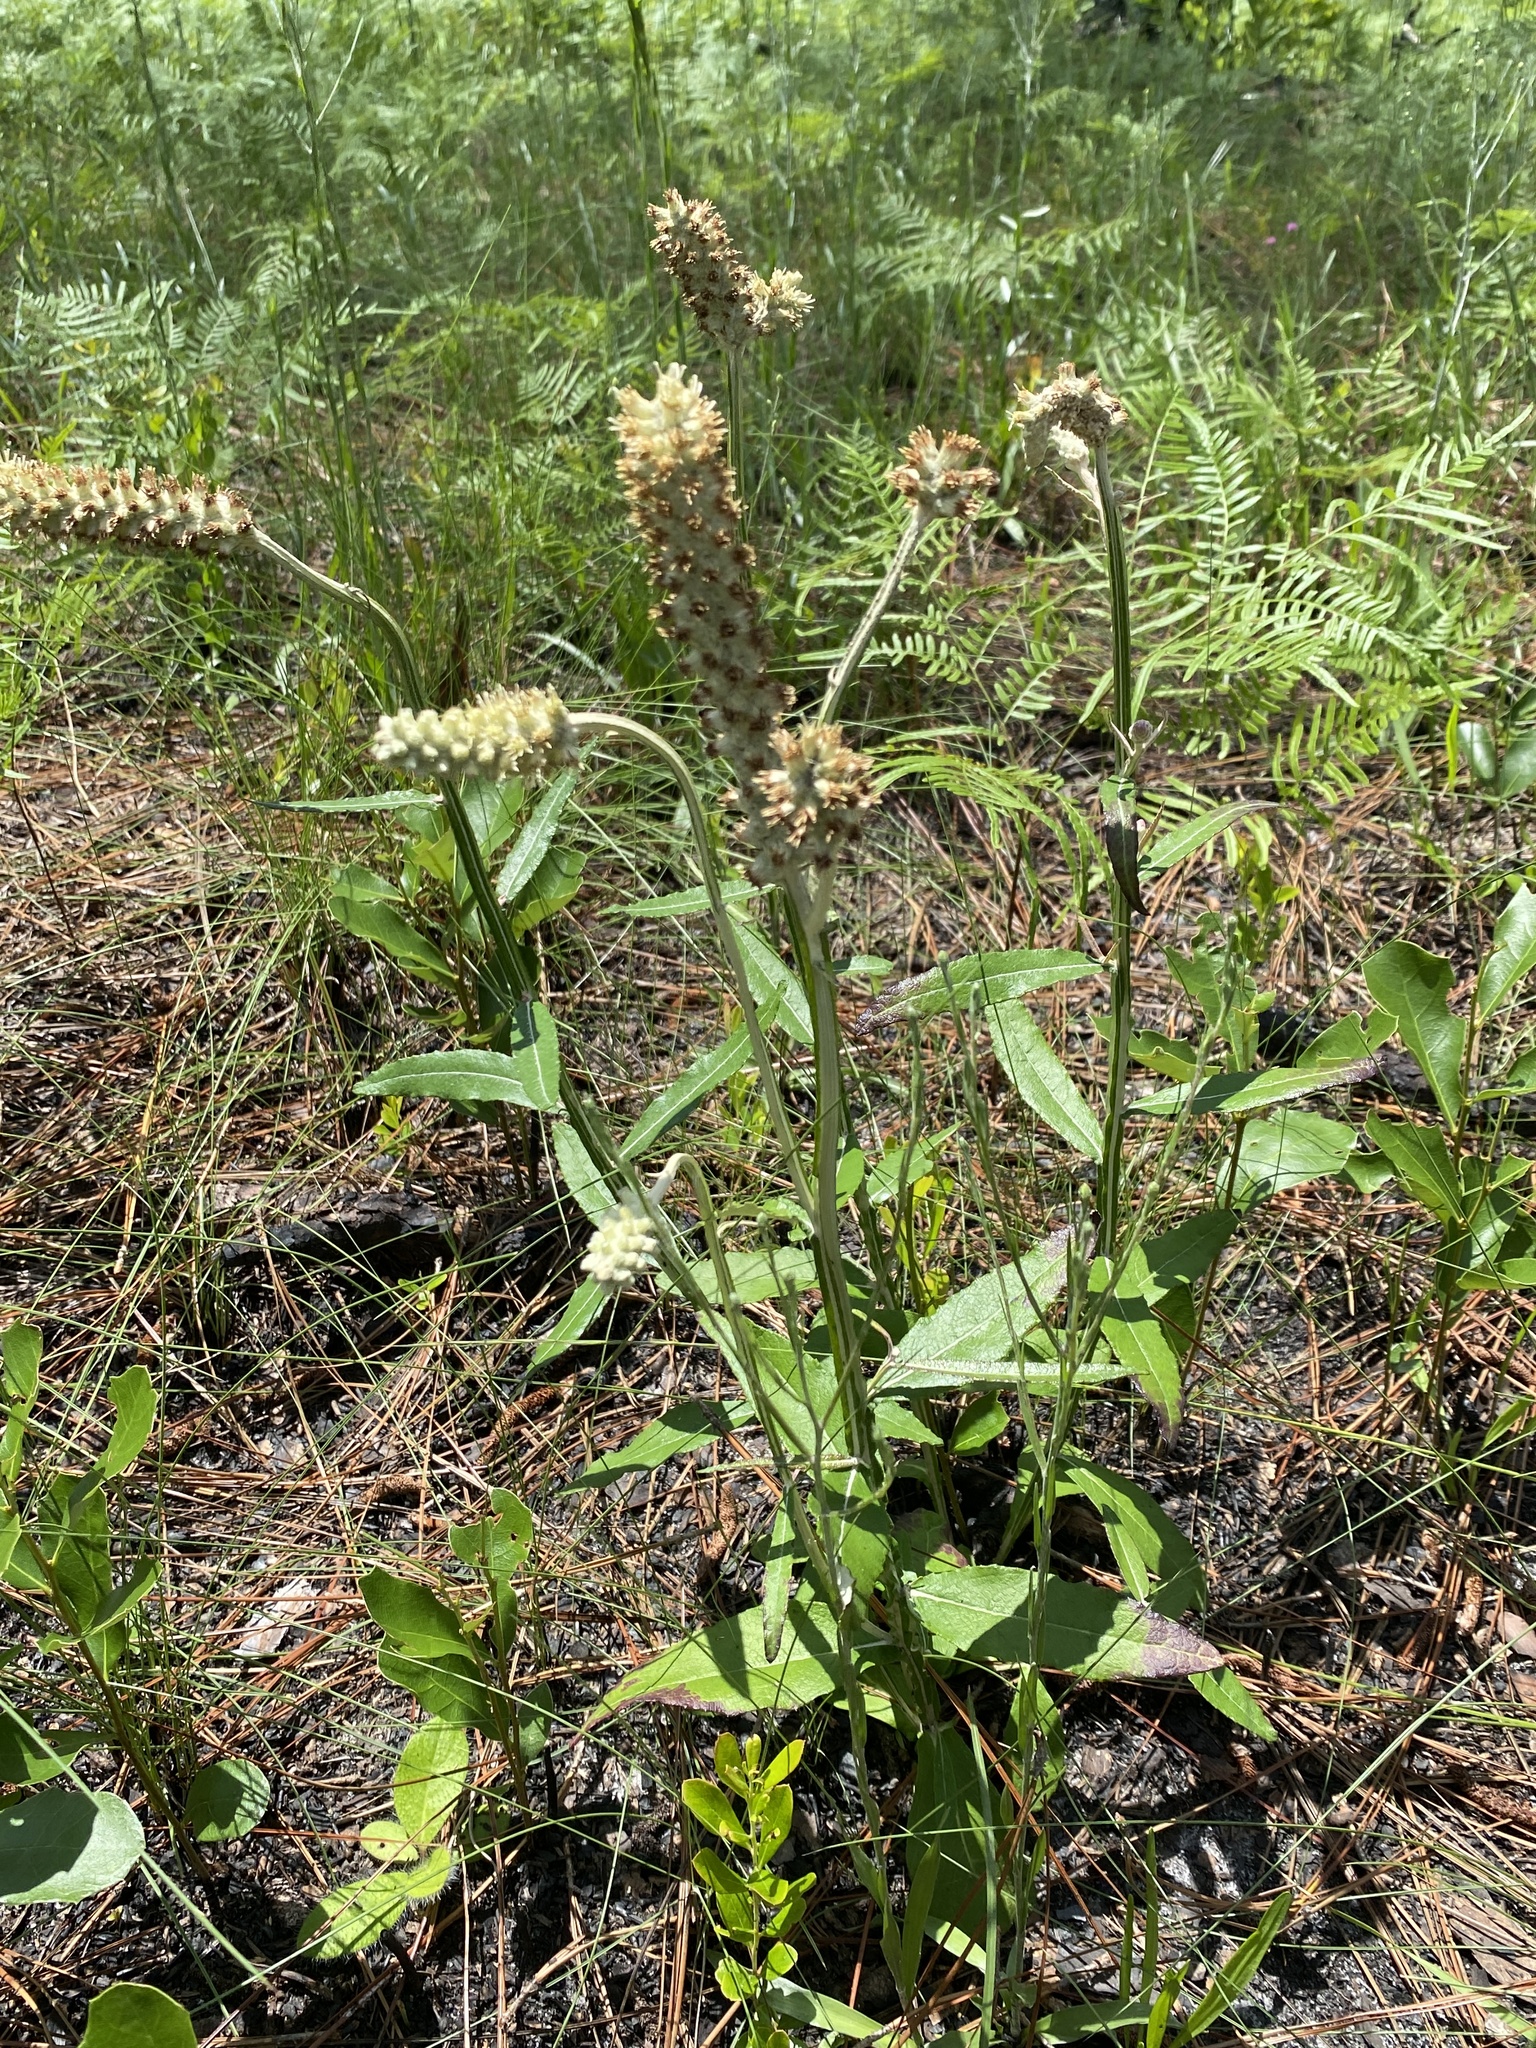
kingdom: Plantae
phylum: Tracheophyta
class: Magnoliopsida
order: Asterales
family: Asteraceae
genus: Pterocaulon
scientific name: Pterocaulon pycnostachyum
